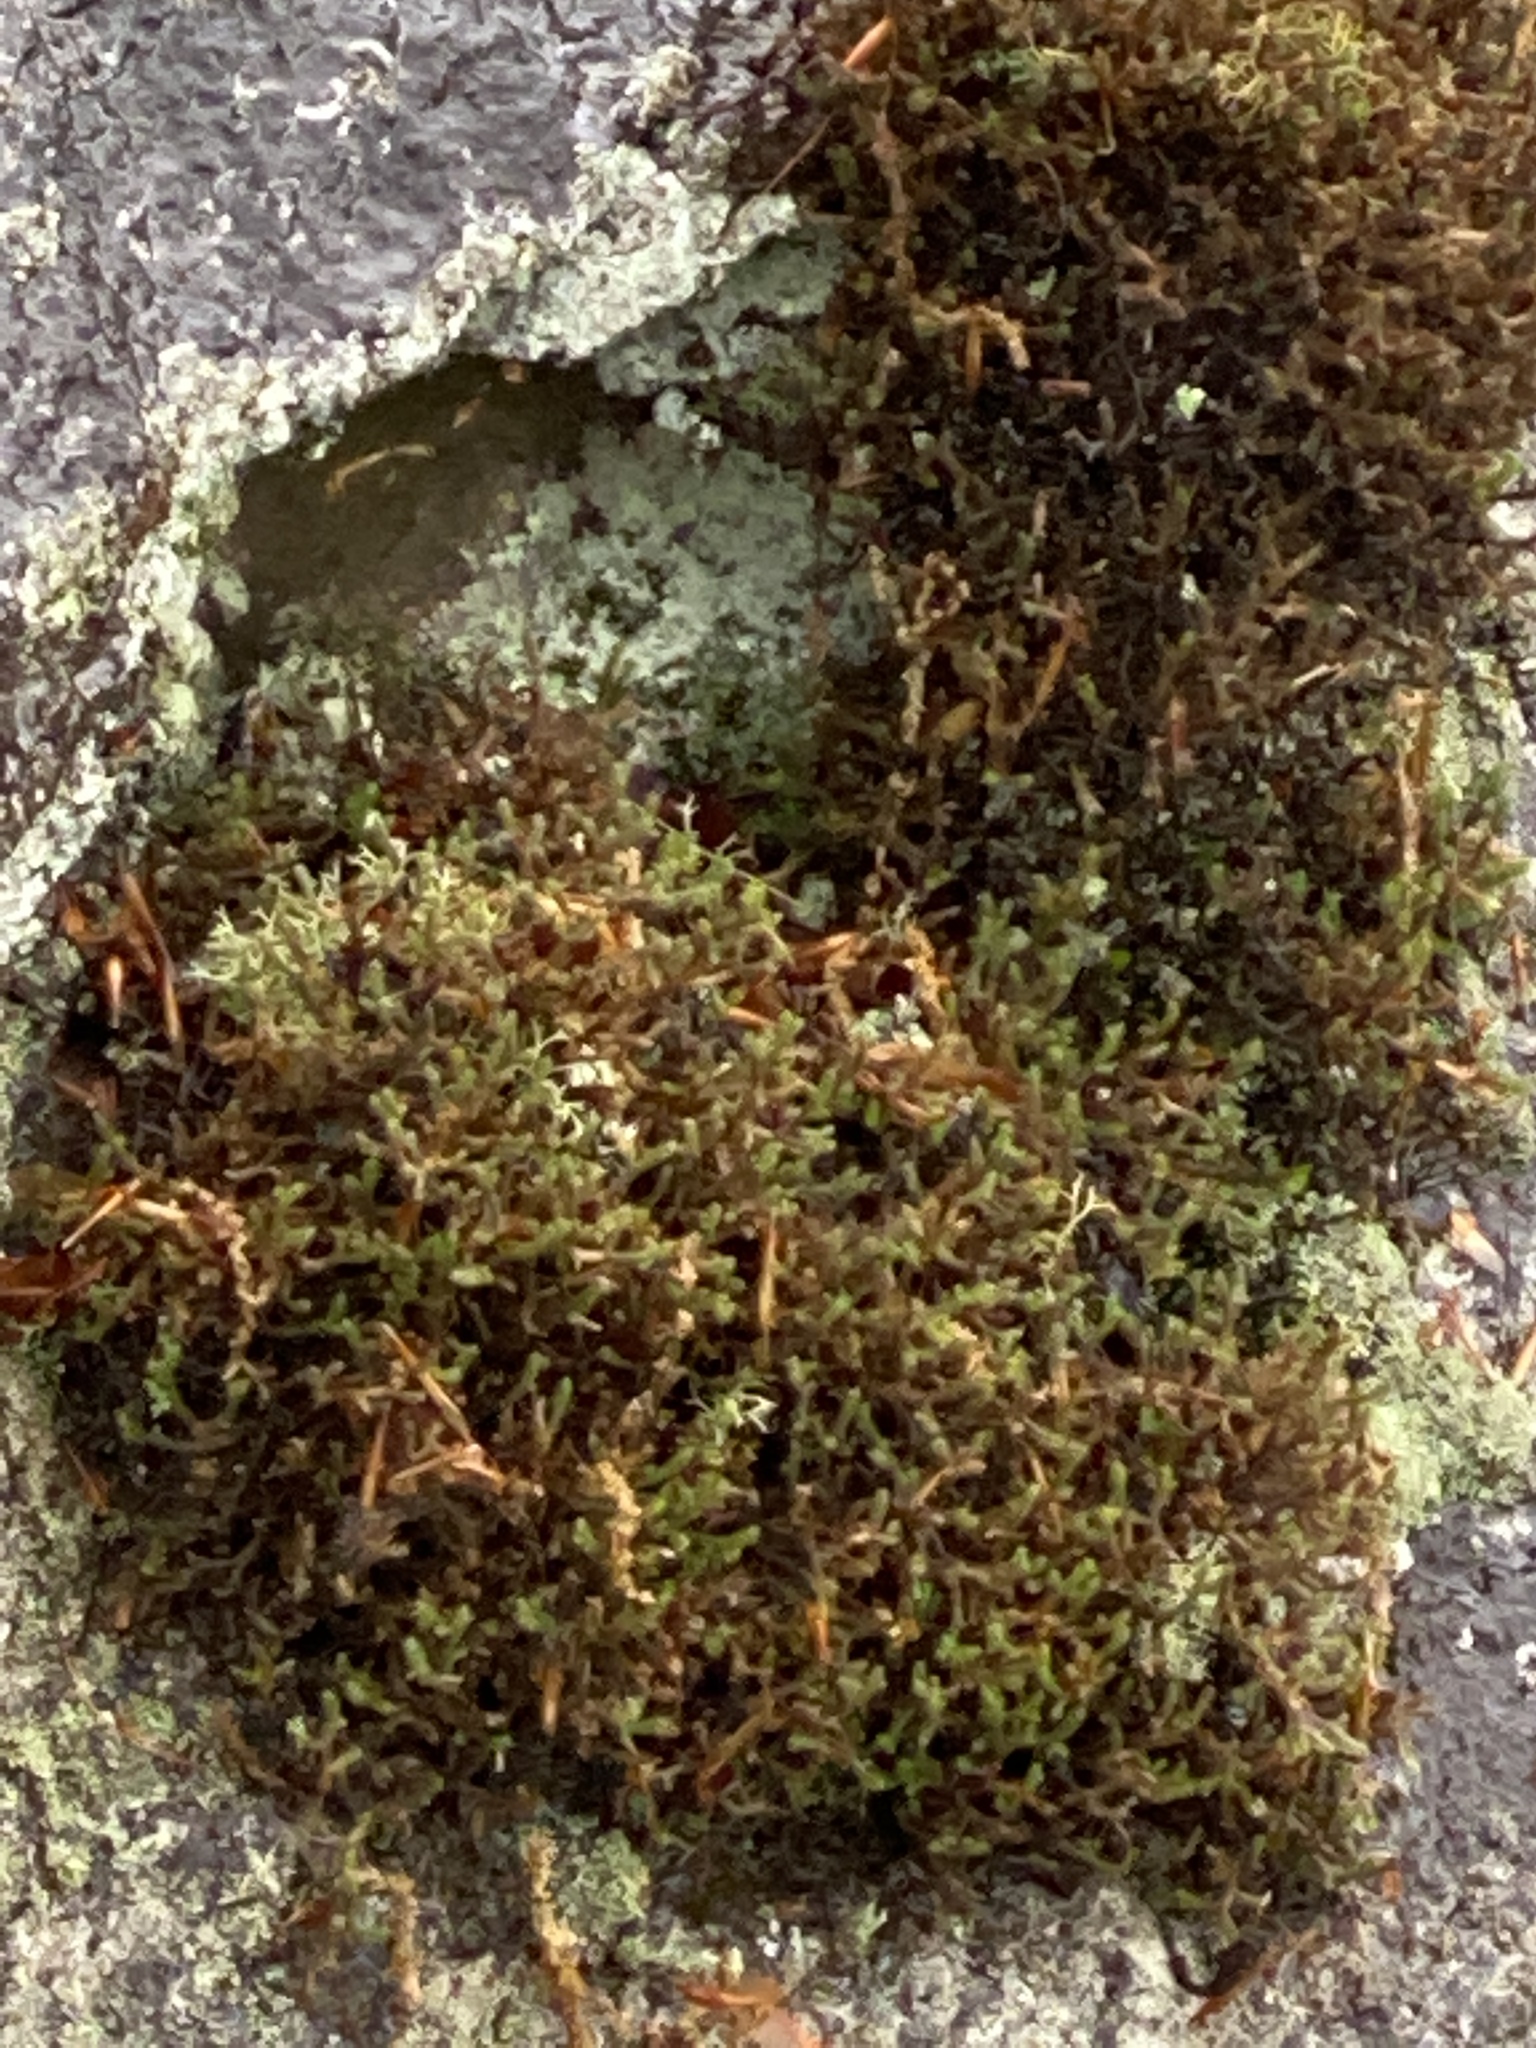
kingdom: Plantae
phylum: Tracheophyta
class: Lycopodiopsida
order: Selaginellales
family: Selaginellaceae
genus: Selaginella
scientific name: Selaginella tortipila
